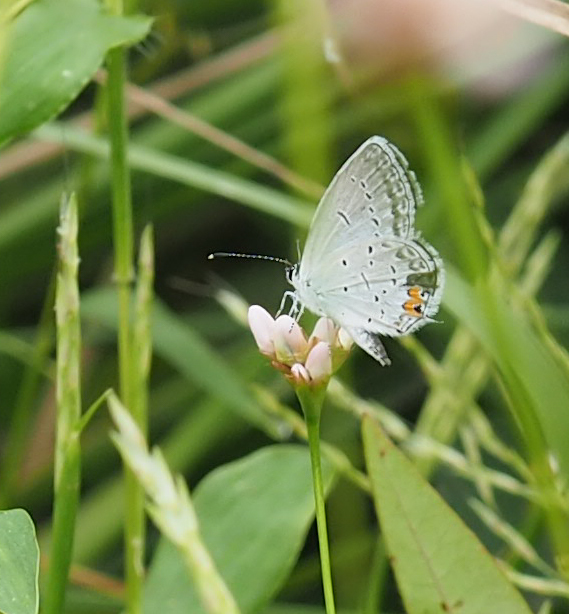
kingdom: Animalia
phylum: Arthropoda
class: Insecta
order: Lepidoptera
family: Lycaenidae
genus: Elkalyce
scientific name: Elkalyce comyntas
